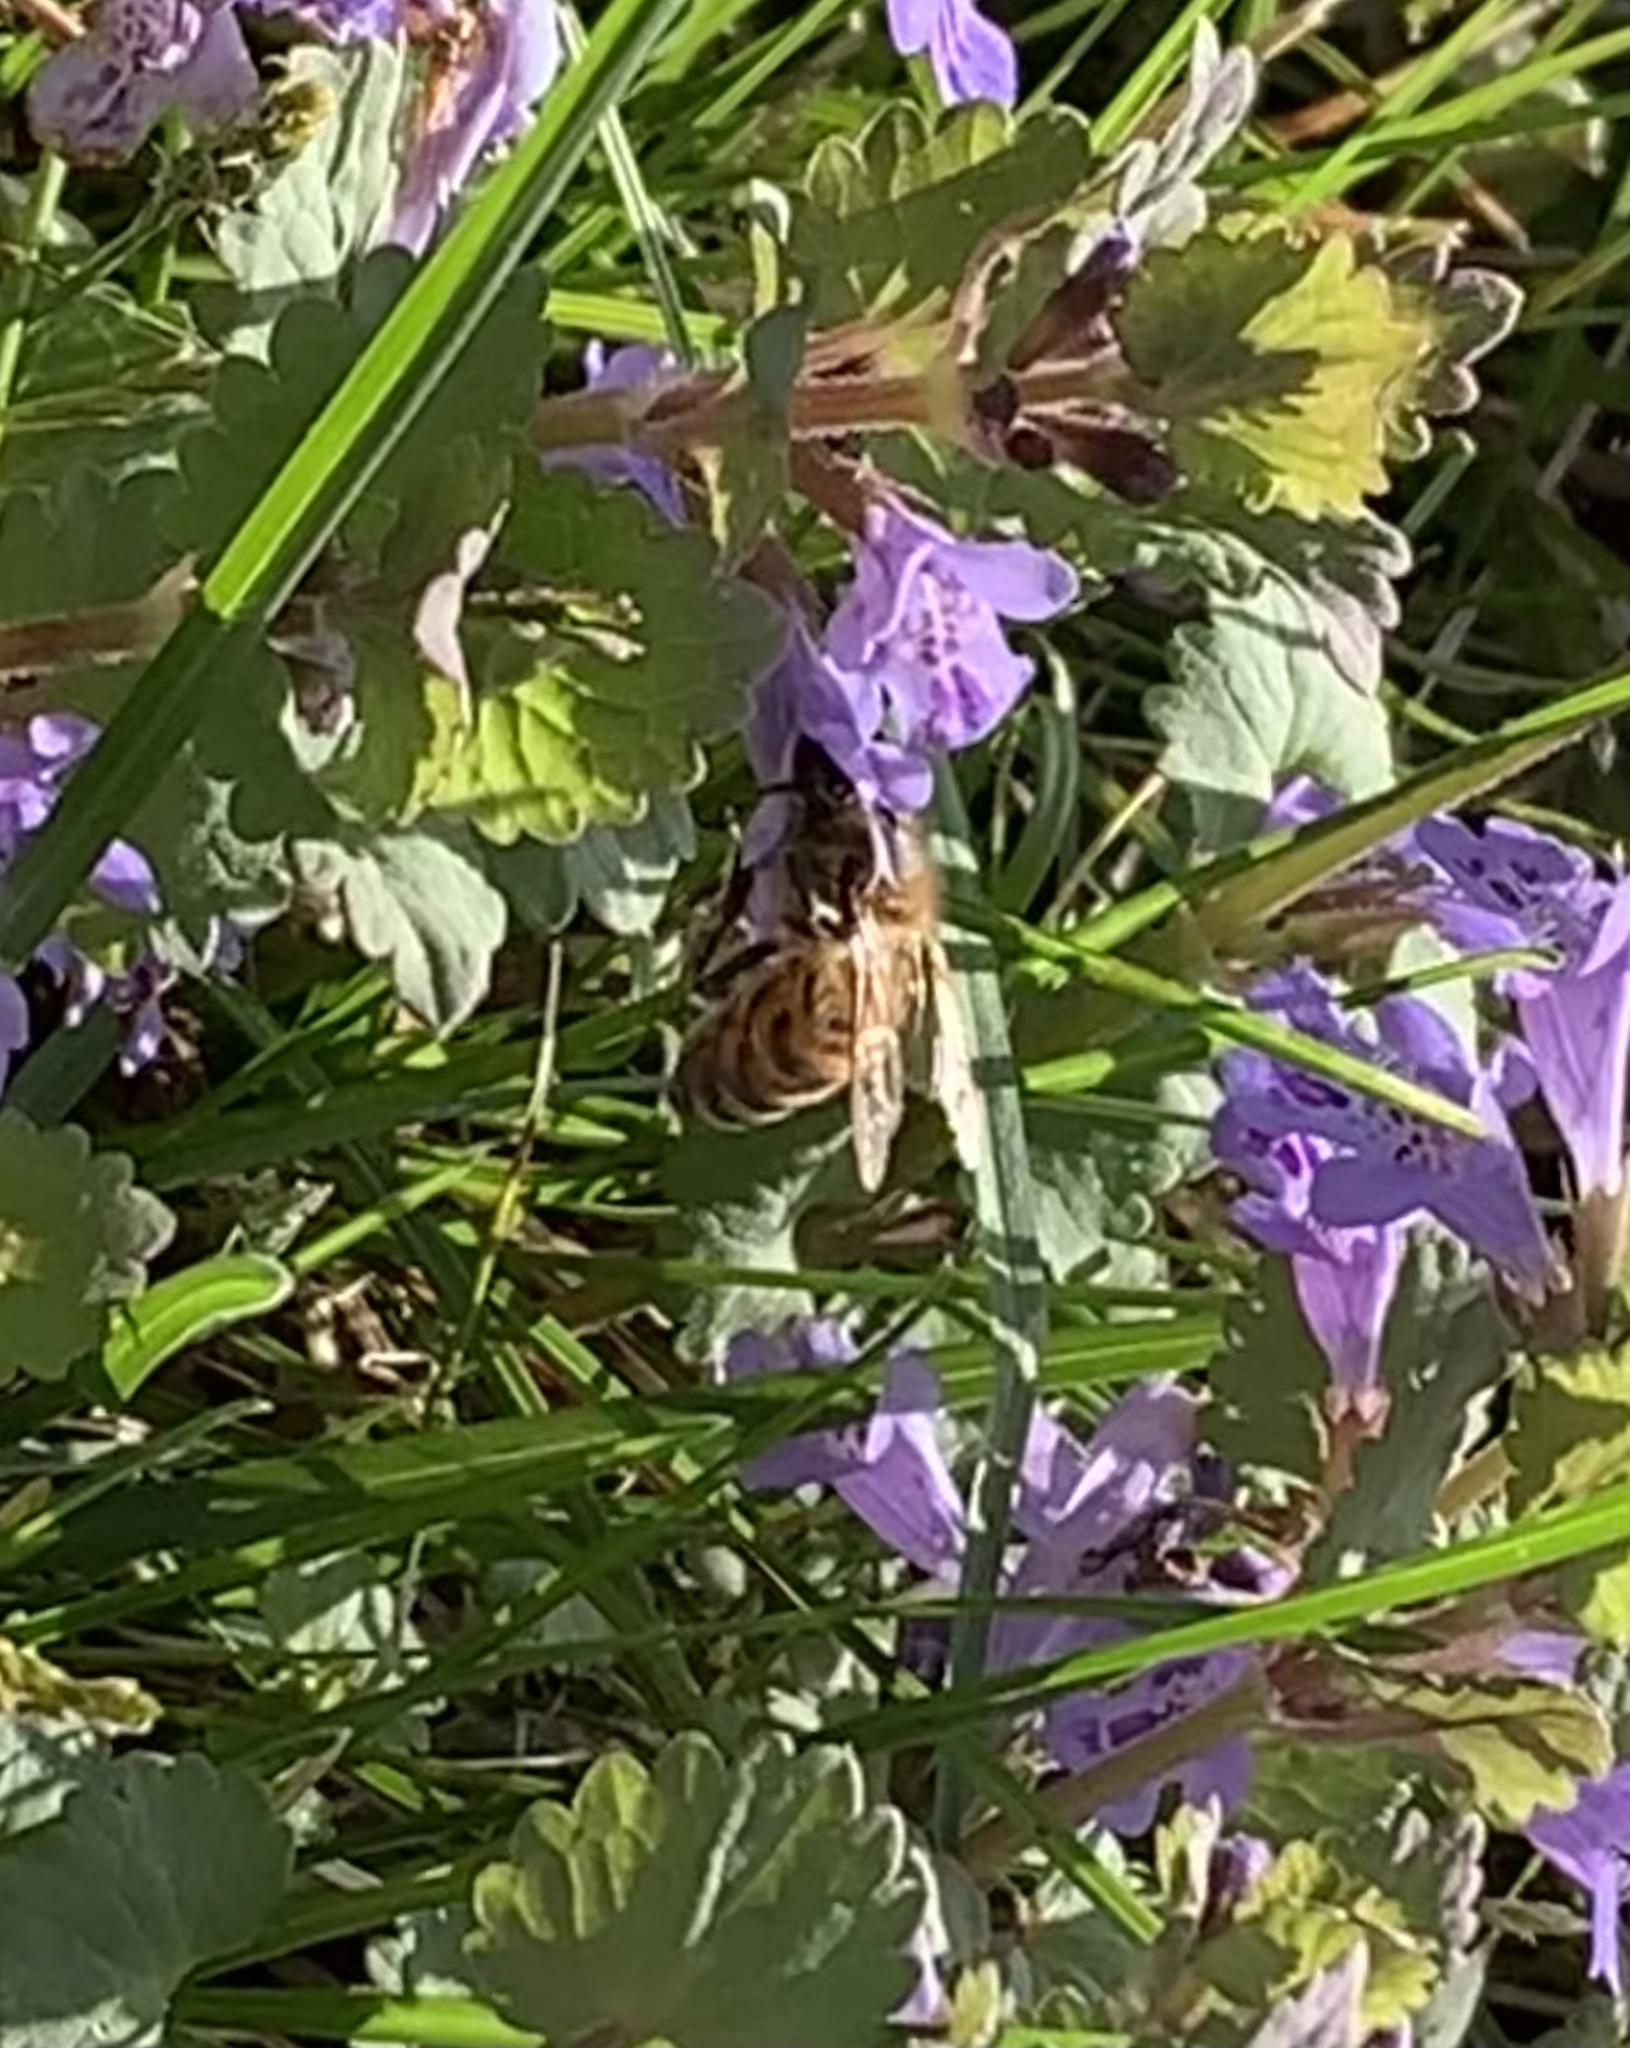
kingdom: Animalia
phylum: Arthropoda
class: Insecta
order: Hymenoptera
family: Apidae
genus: Apis
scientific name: Apis mellifera
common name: Honey bee
